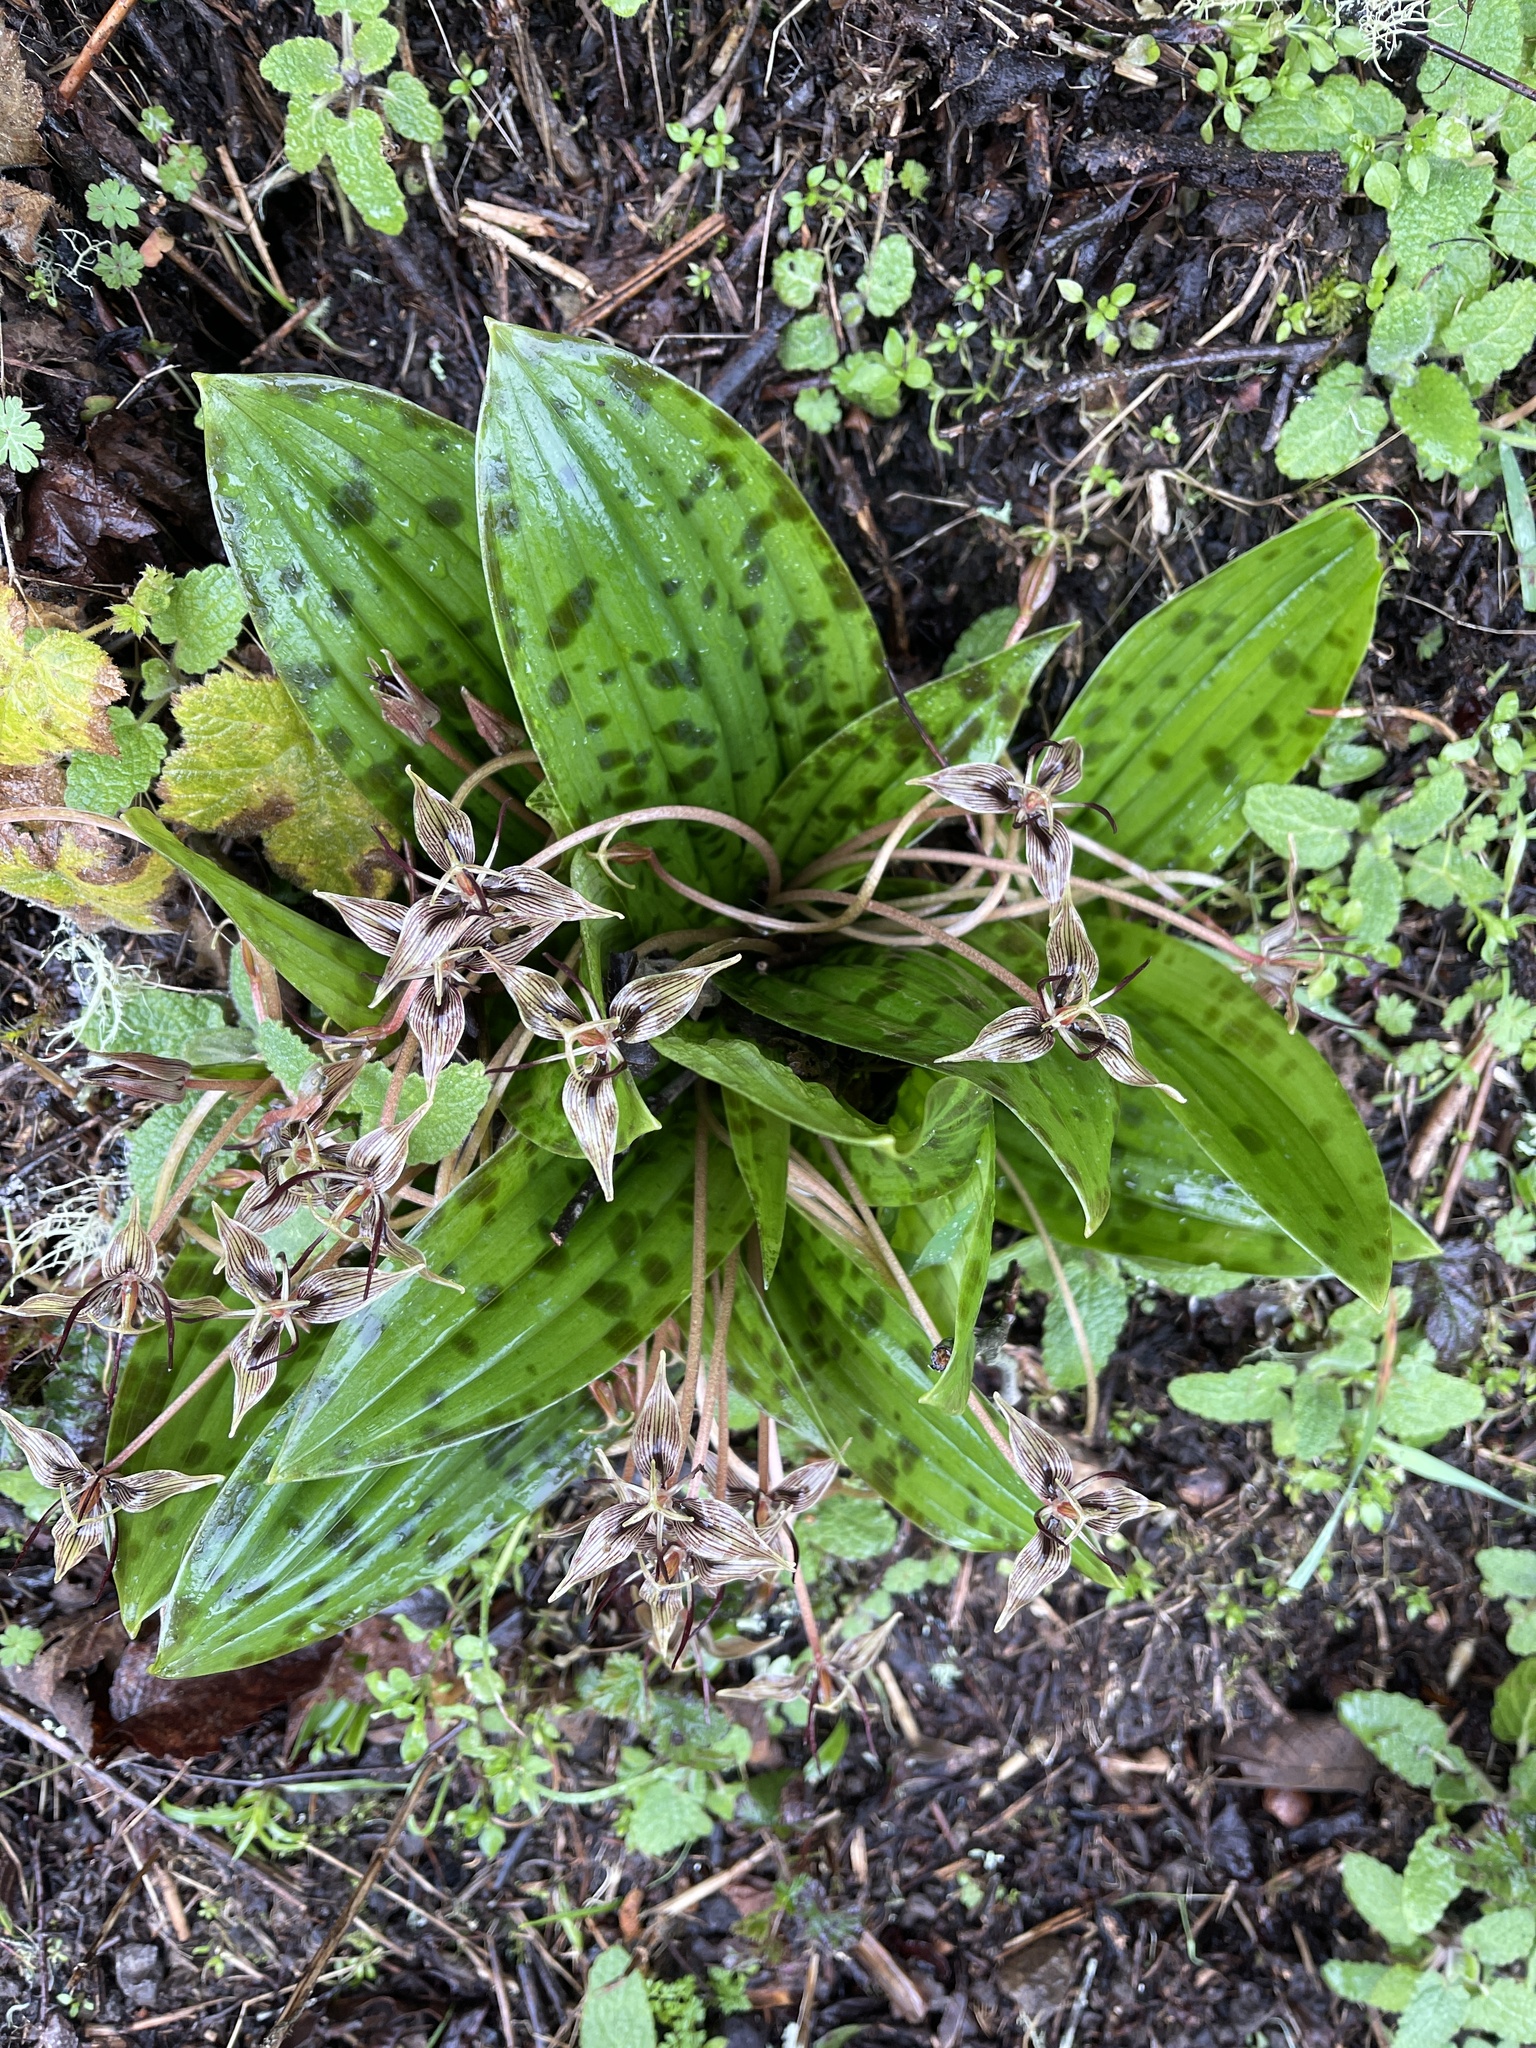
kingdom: Plantae
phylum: Tracheophyta
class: Liliopsida
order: Liliales
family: Liliaceae
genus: Scoliopus
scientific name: Scoliopus bigelovii
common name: Foetid adder's-tongue
